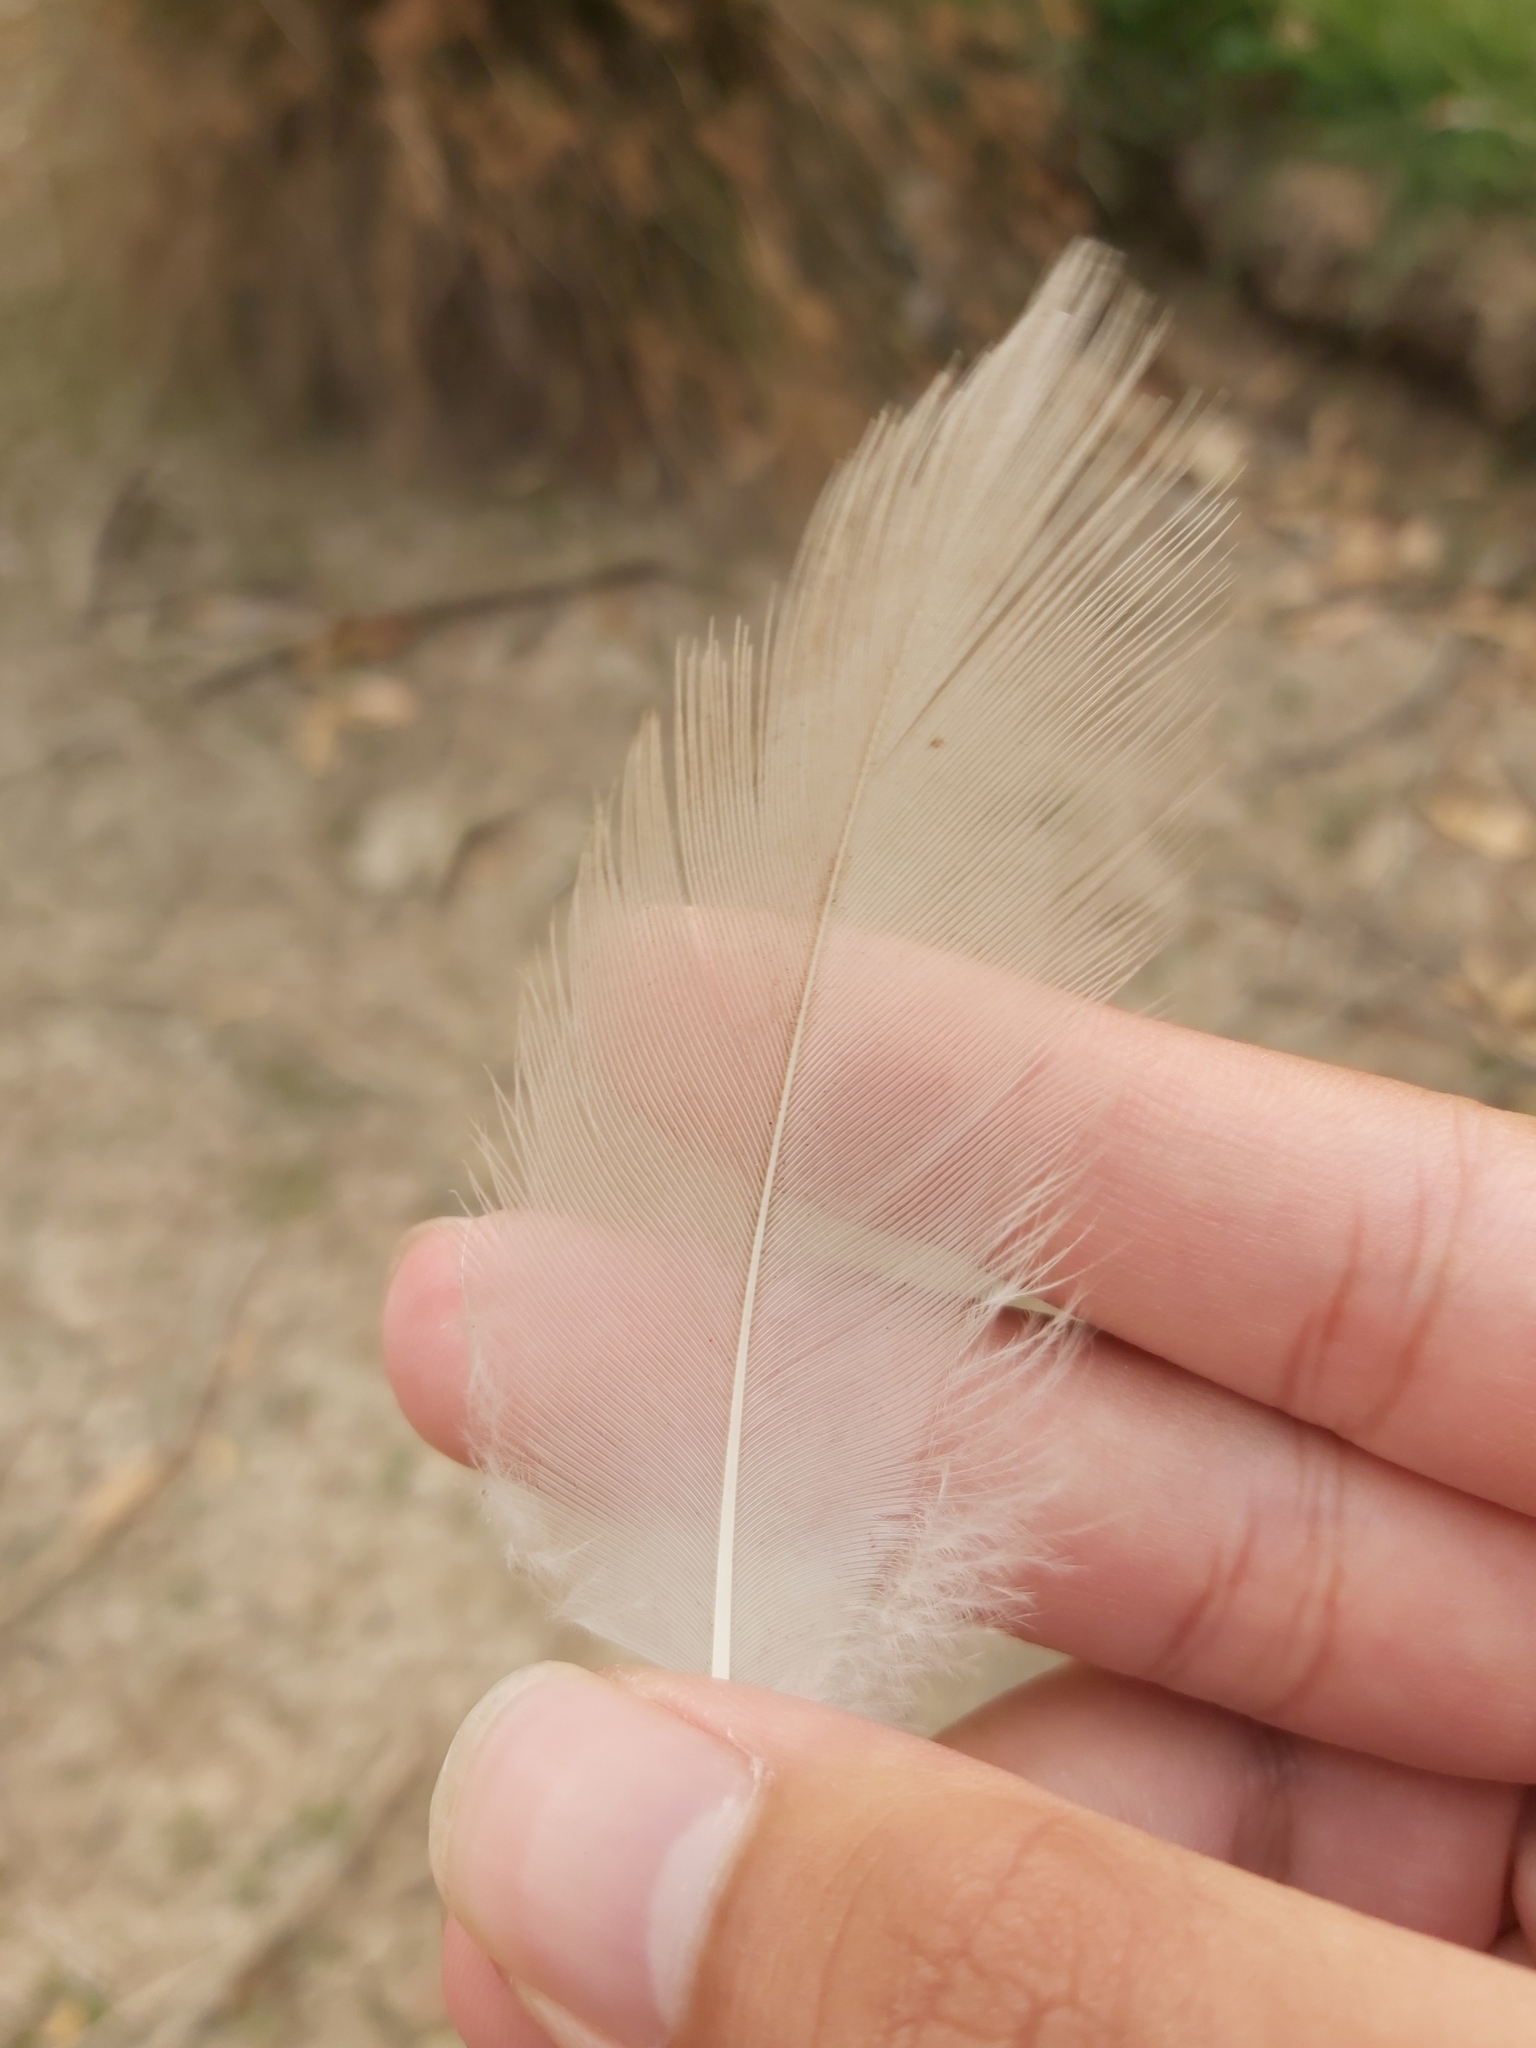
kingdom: Animalia
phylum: Chordata
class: Aves
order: Pelecaniformes
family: Threskiornithidae
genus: Threskiornis
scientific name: Threskiornis molucca
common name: Australian white ibis
